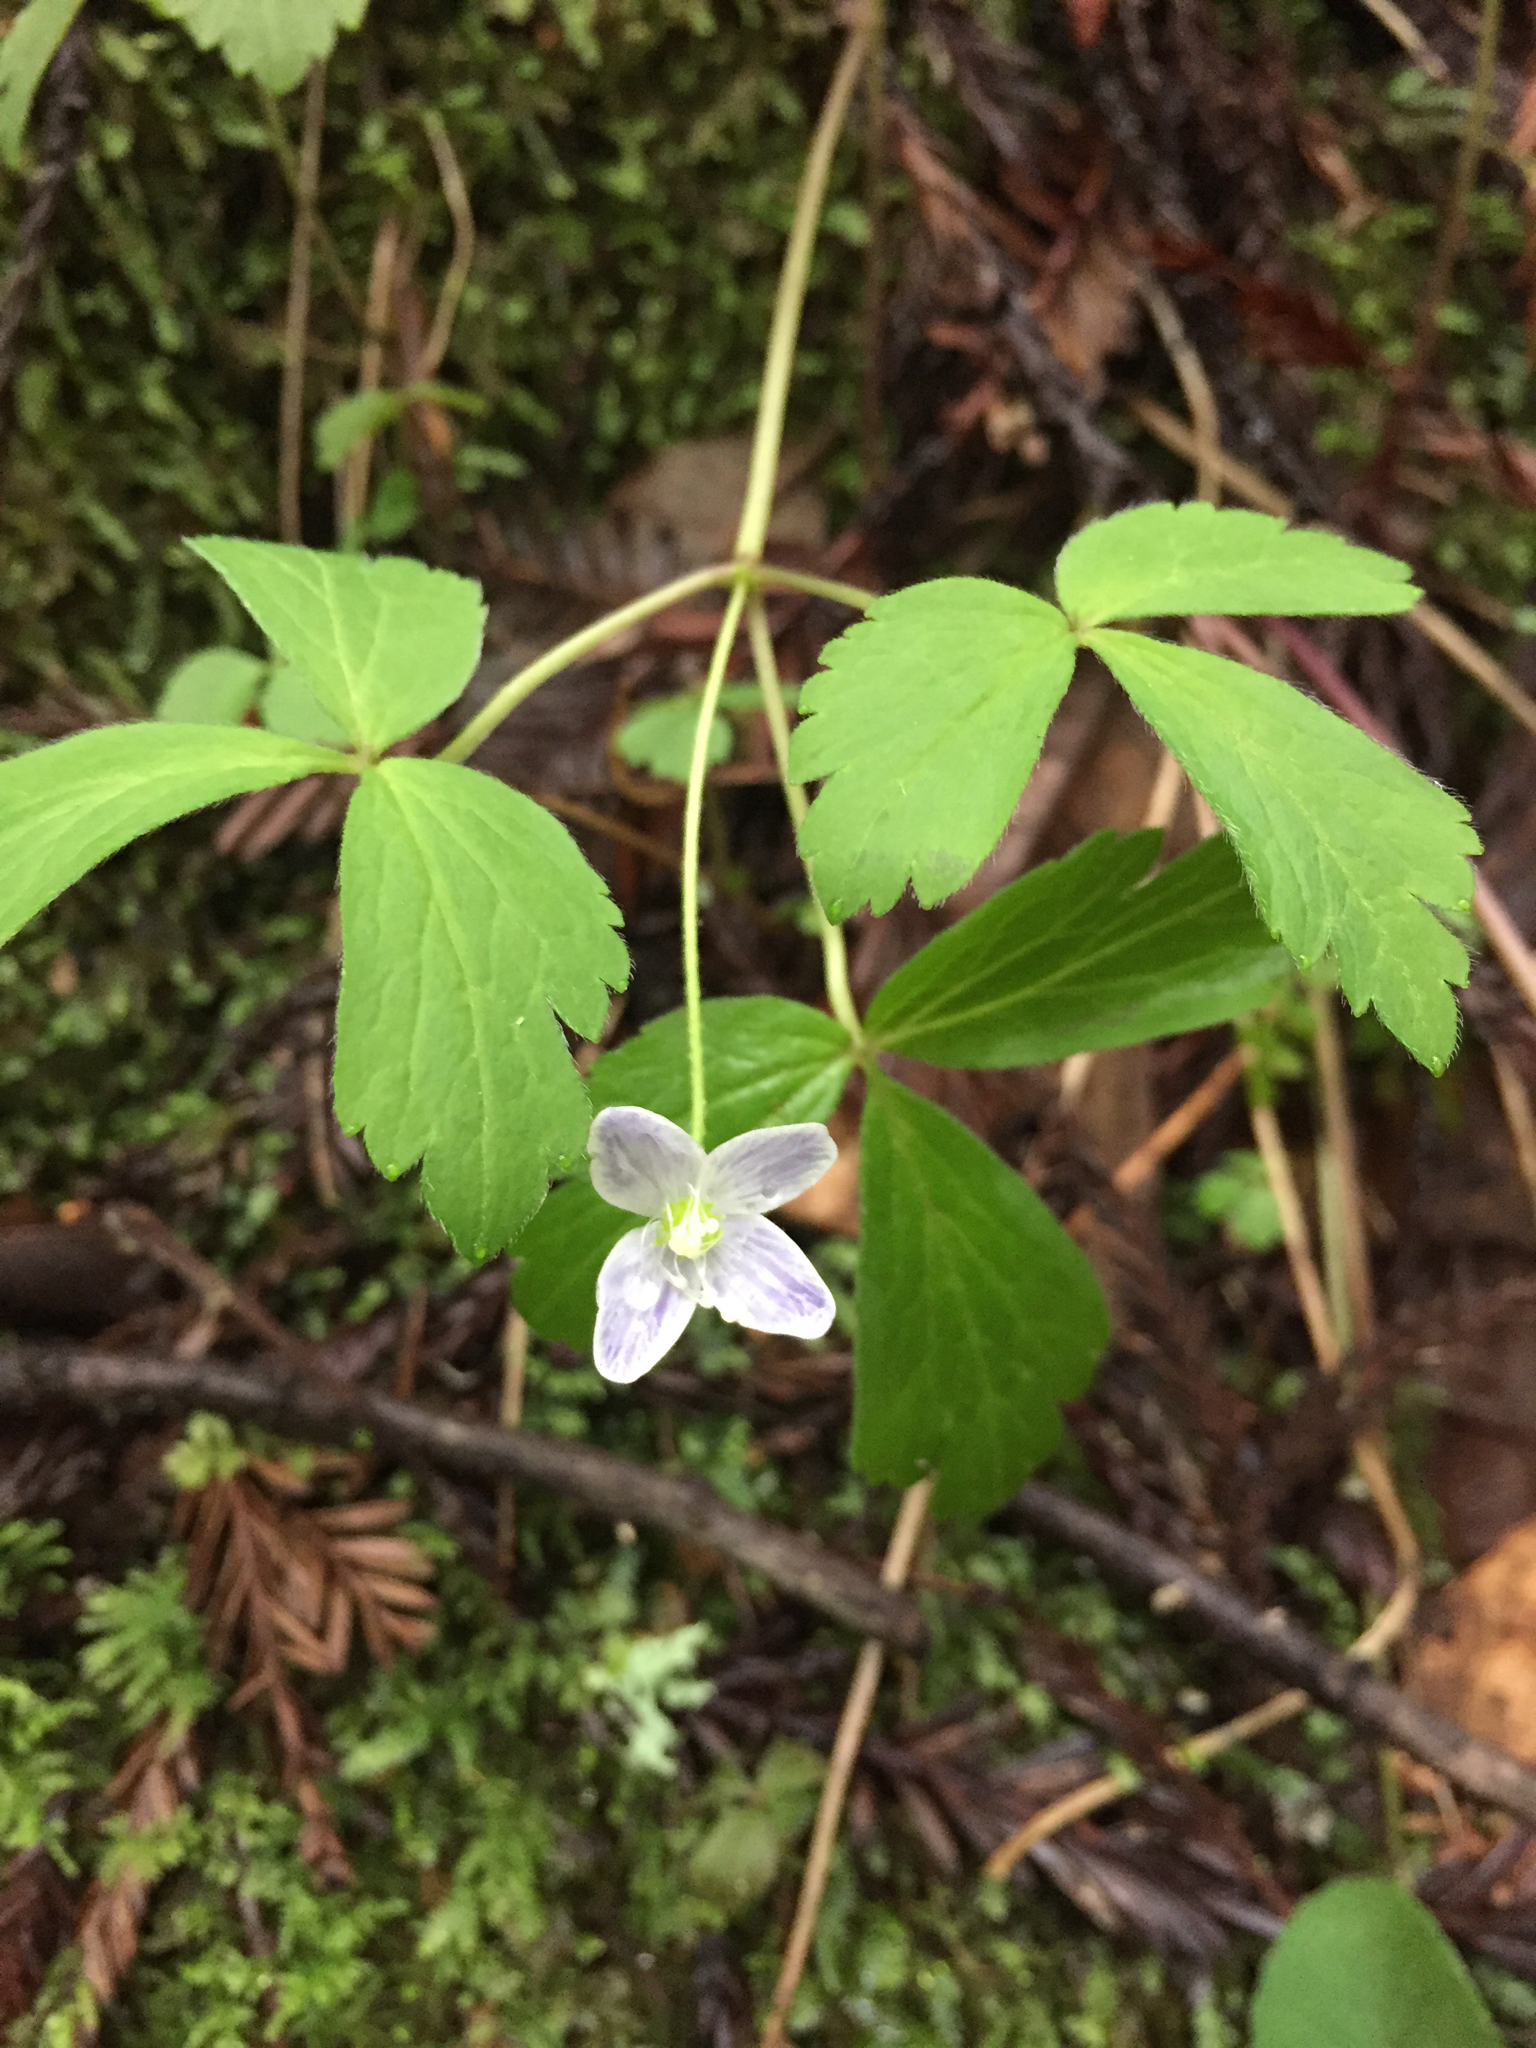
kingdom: Plantae
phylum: Tracheophyta
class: Magnoliopsida
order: Ranunculales
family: Ranunculaceae
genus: Anemone
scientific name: Anemone
